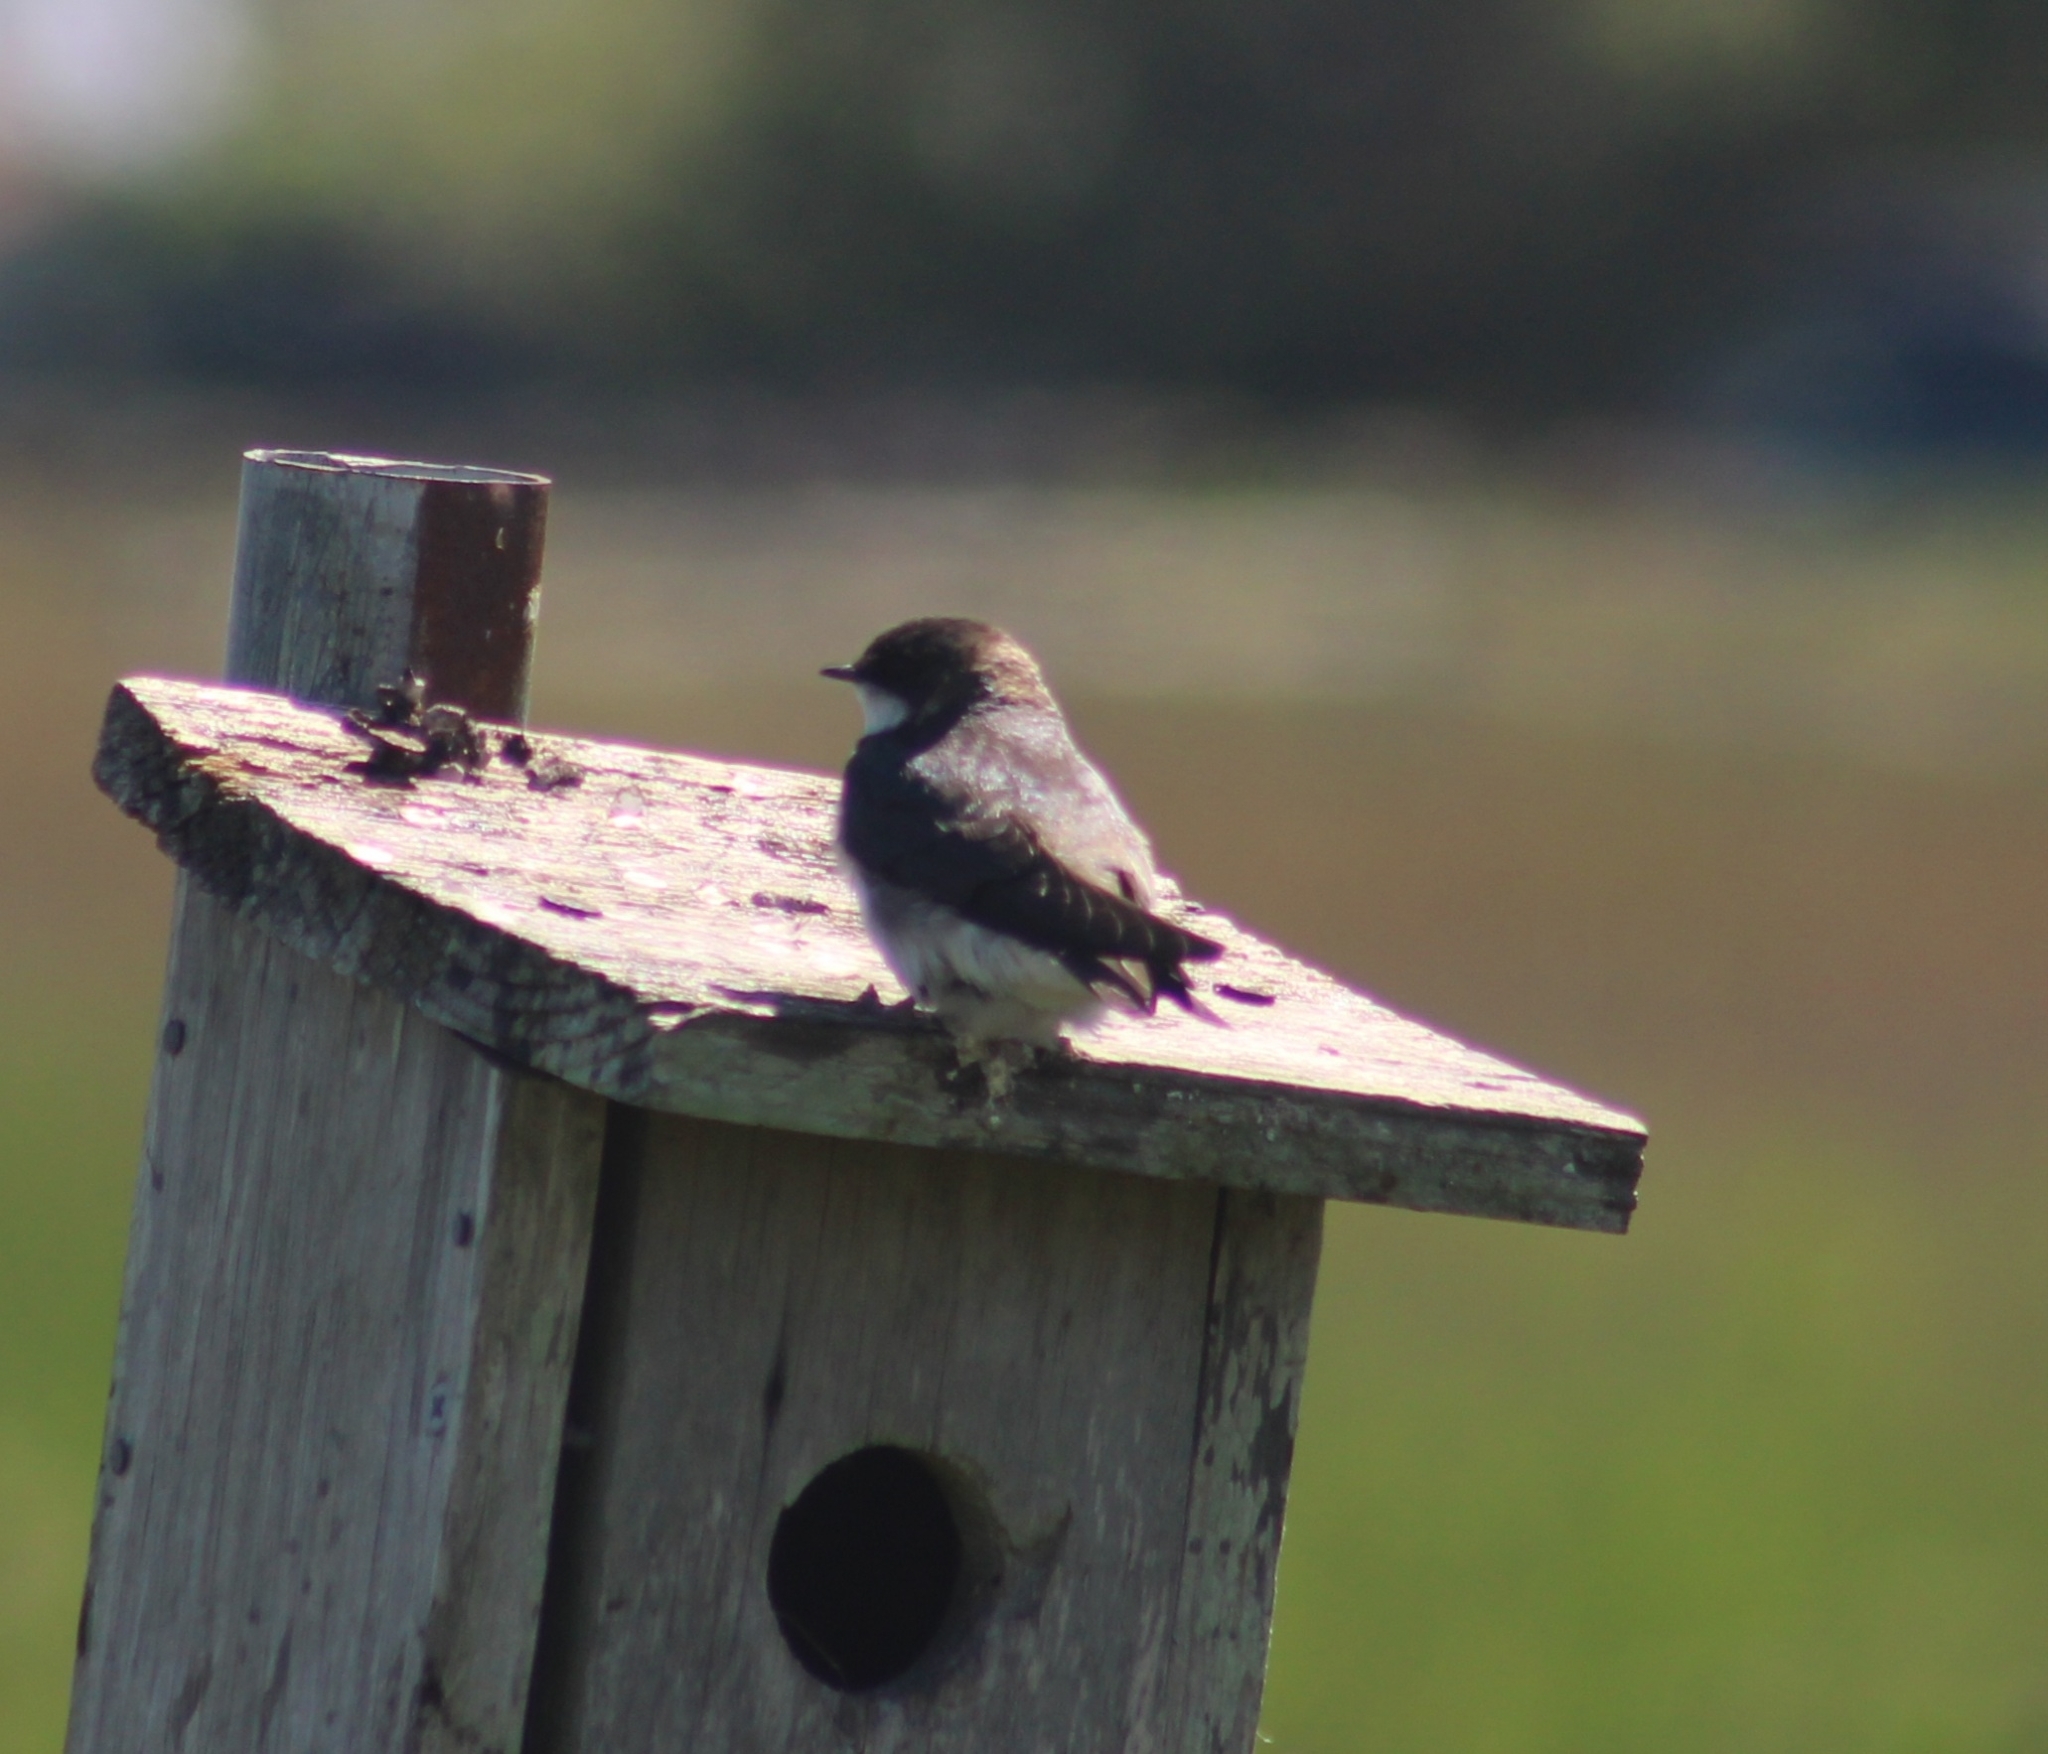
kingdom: Animalia
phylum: Chordata
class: Aves
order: Passeriformes
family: Hirundinidae
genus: Tachycineta
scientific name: Tachycineta bicolor
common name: Tree swallow
